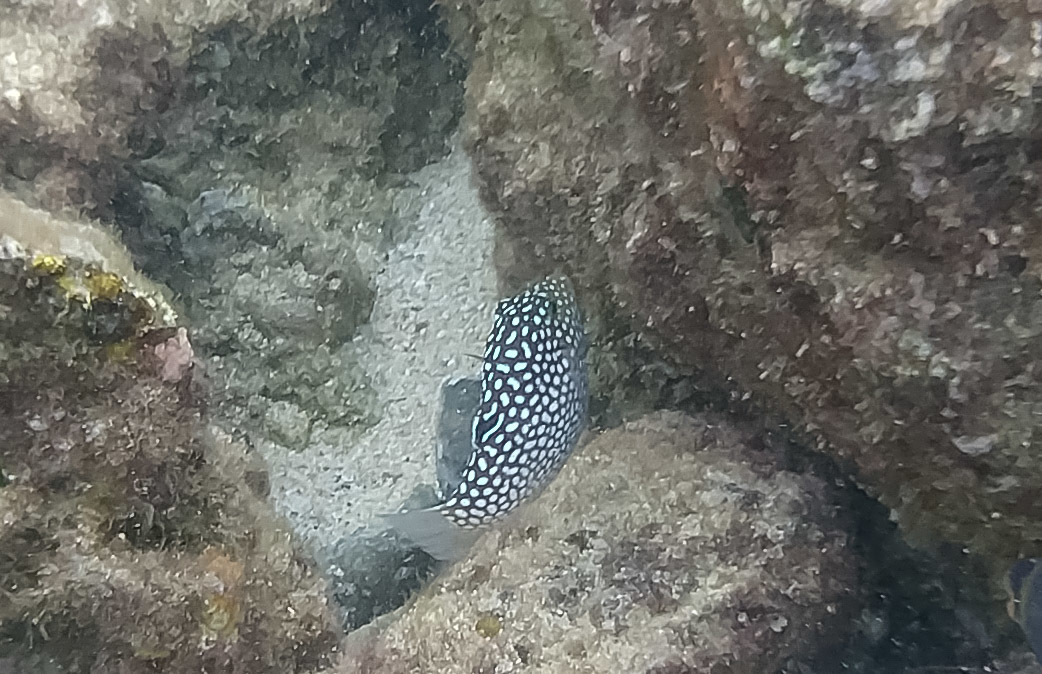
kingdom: Animalia
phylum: Chordata
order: Tetraodontiformes
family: Tetraodontidae
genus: Canthigaster
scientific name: Canthigaster jactator
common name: Hawaiian whitespotted toby
